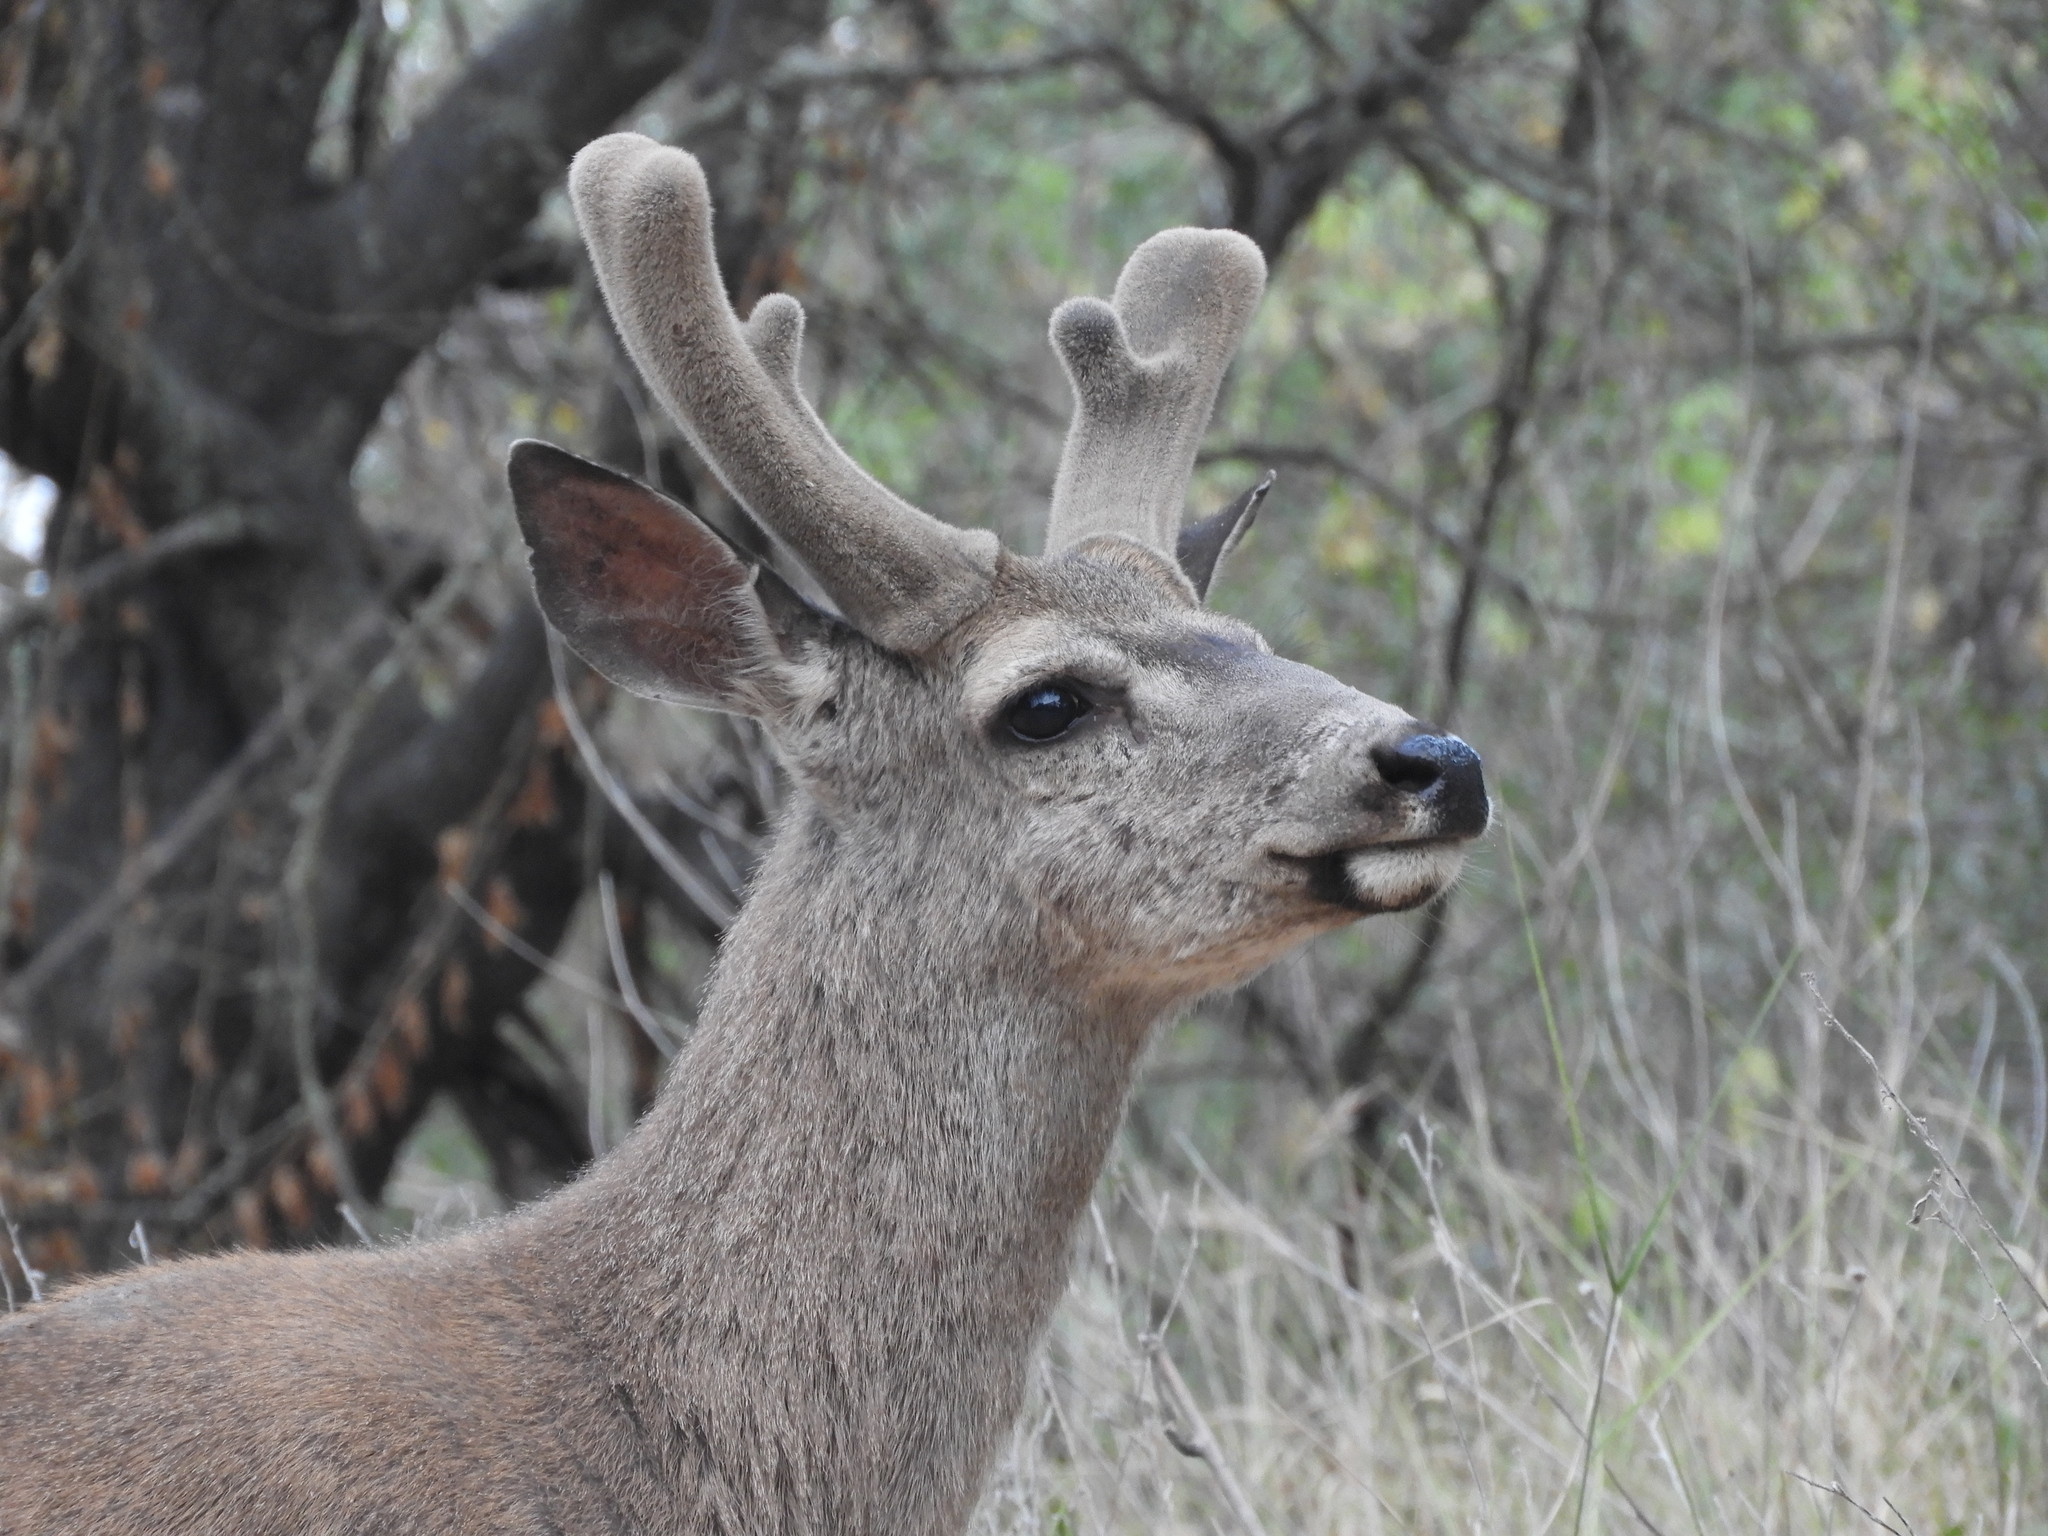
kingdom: Animalia
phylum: Chordata
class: Mammalia
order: Artiodactyla
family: Cervidae
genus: Odocoileus
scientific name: Odocoileus hemionus
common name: Mule deer
